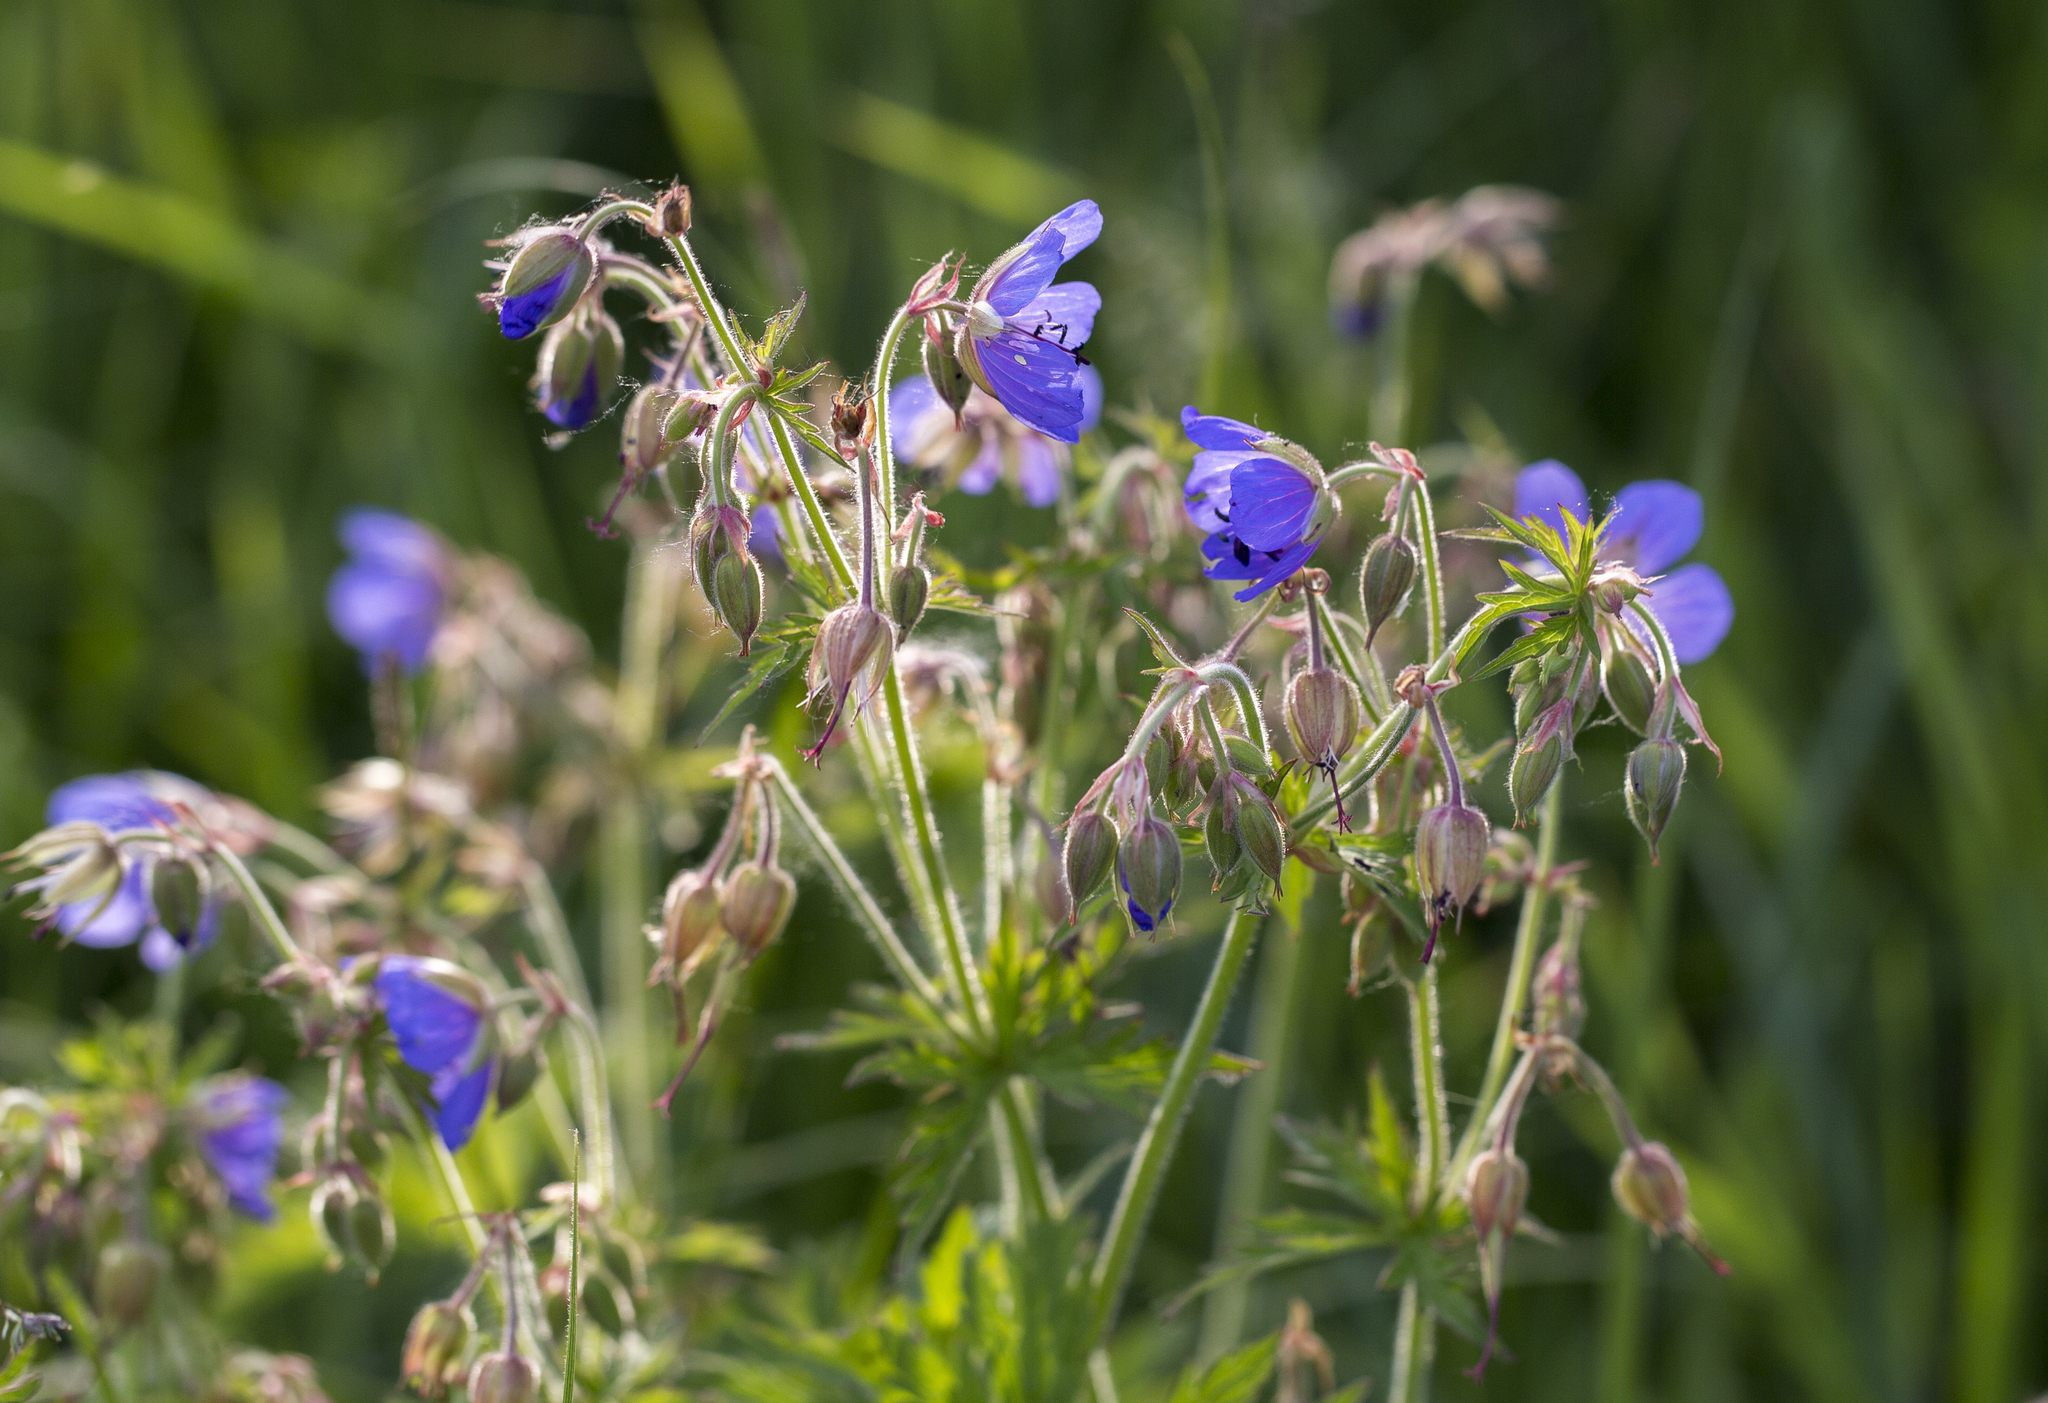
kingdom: Plantae
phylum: Tracheophyta
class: Magnoliopsida
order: Geraniales
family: Geraniaceae
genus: Geranium
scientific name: Geranium pratense
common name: Meadow crane's-bill
